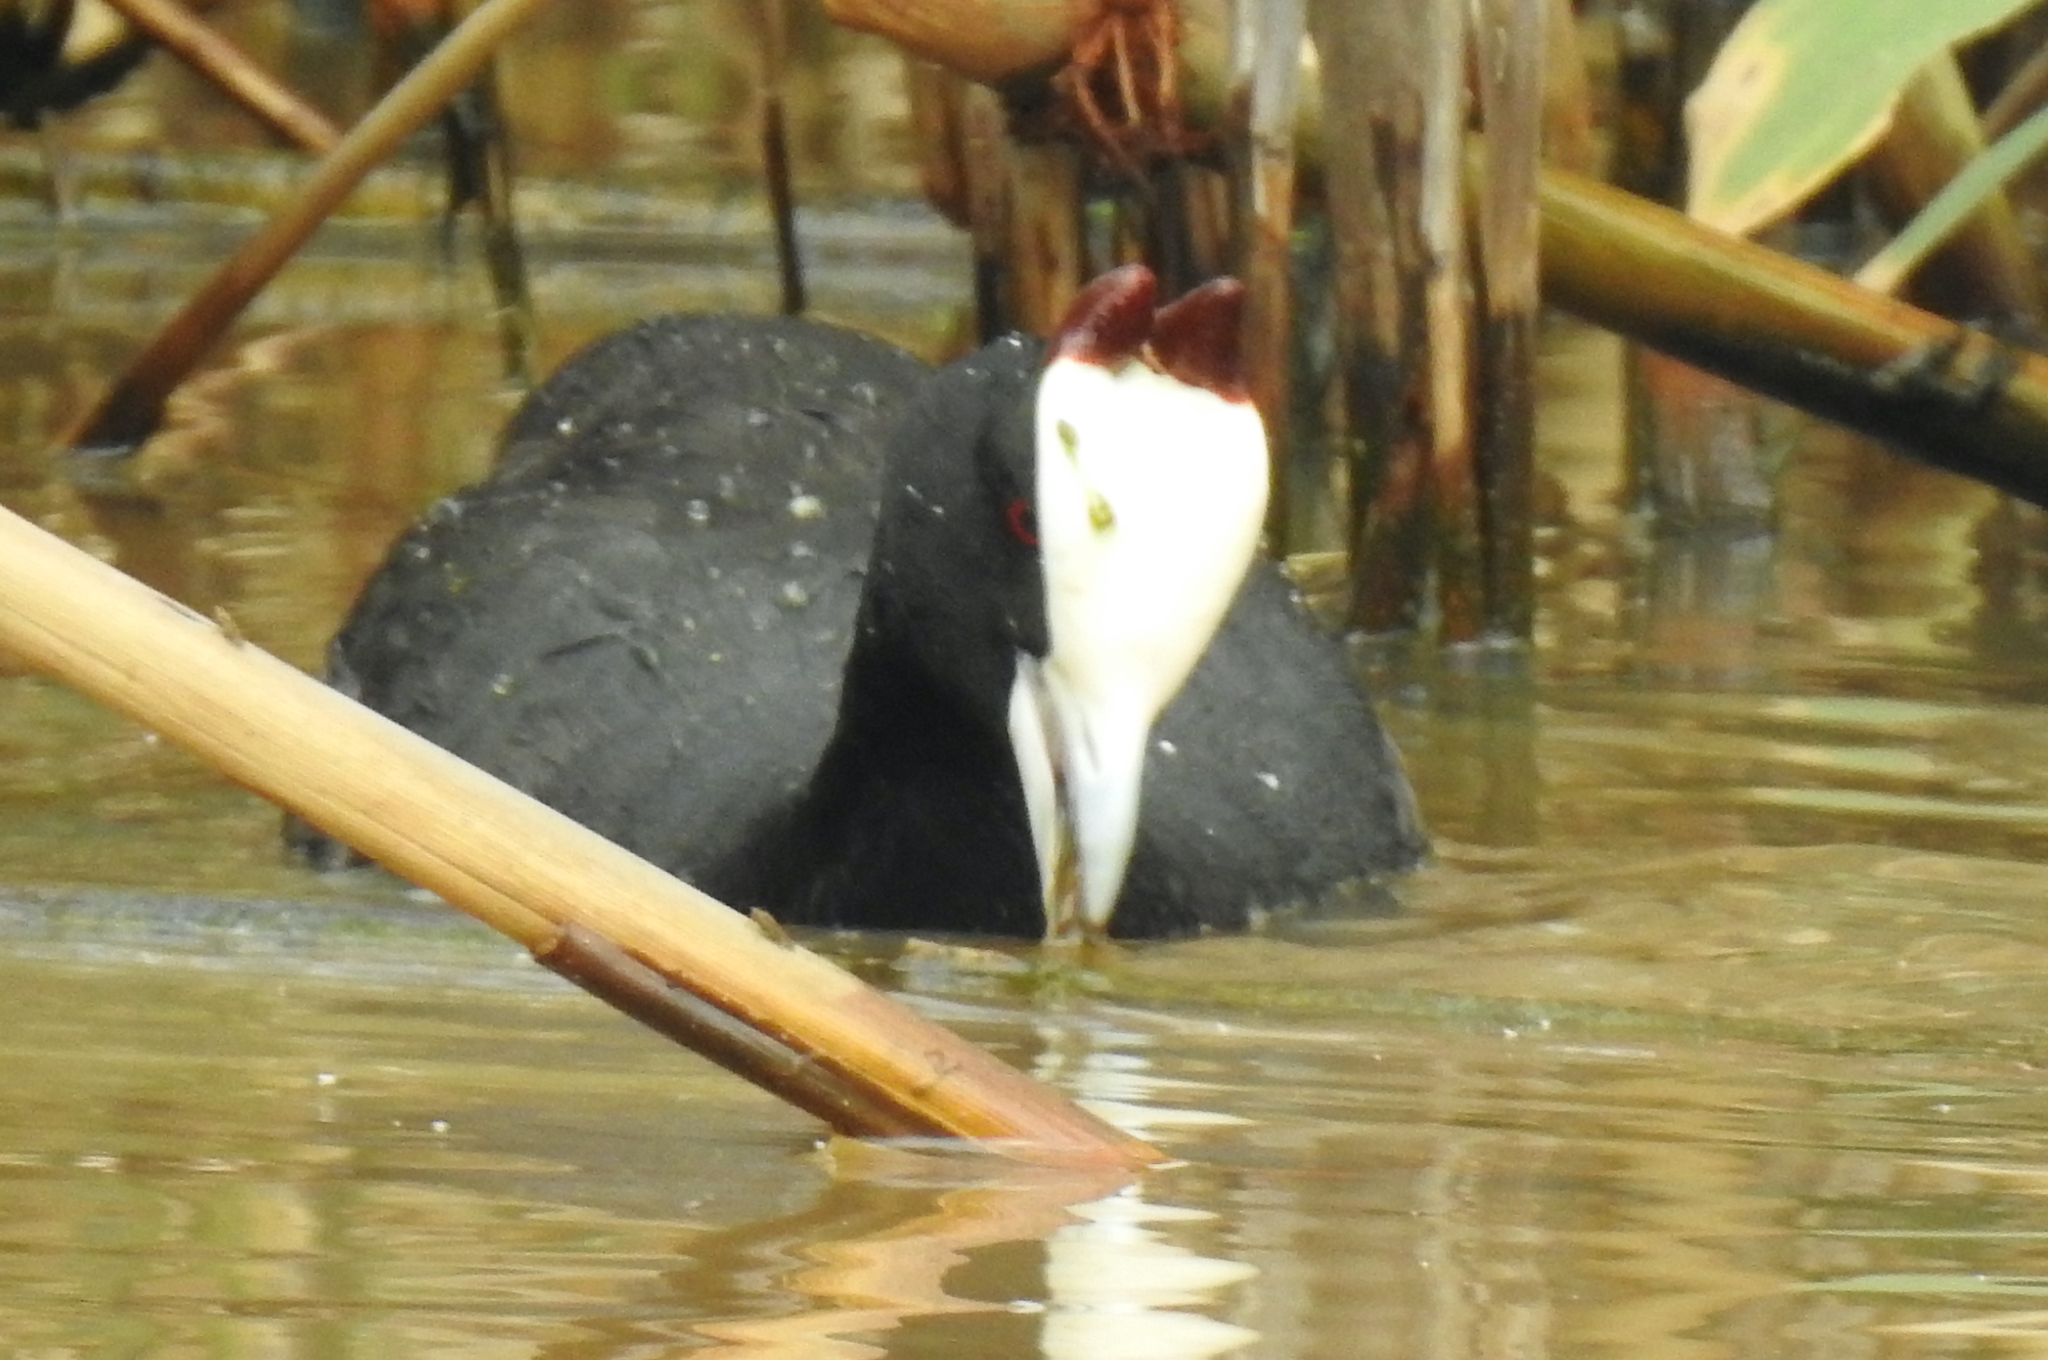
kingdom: Animalia
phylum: Chordata
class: Aves
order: Gruiformes
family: Rallidae
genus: Fulica
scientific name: Fulica cristata
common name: Red-knobbed coot
